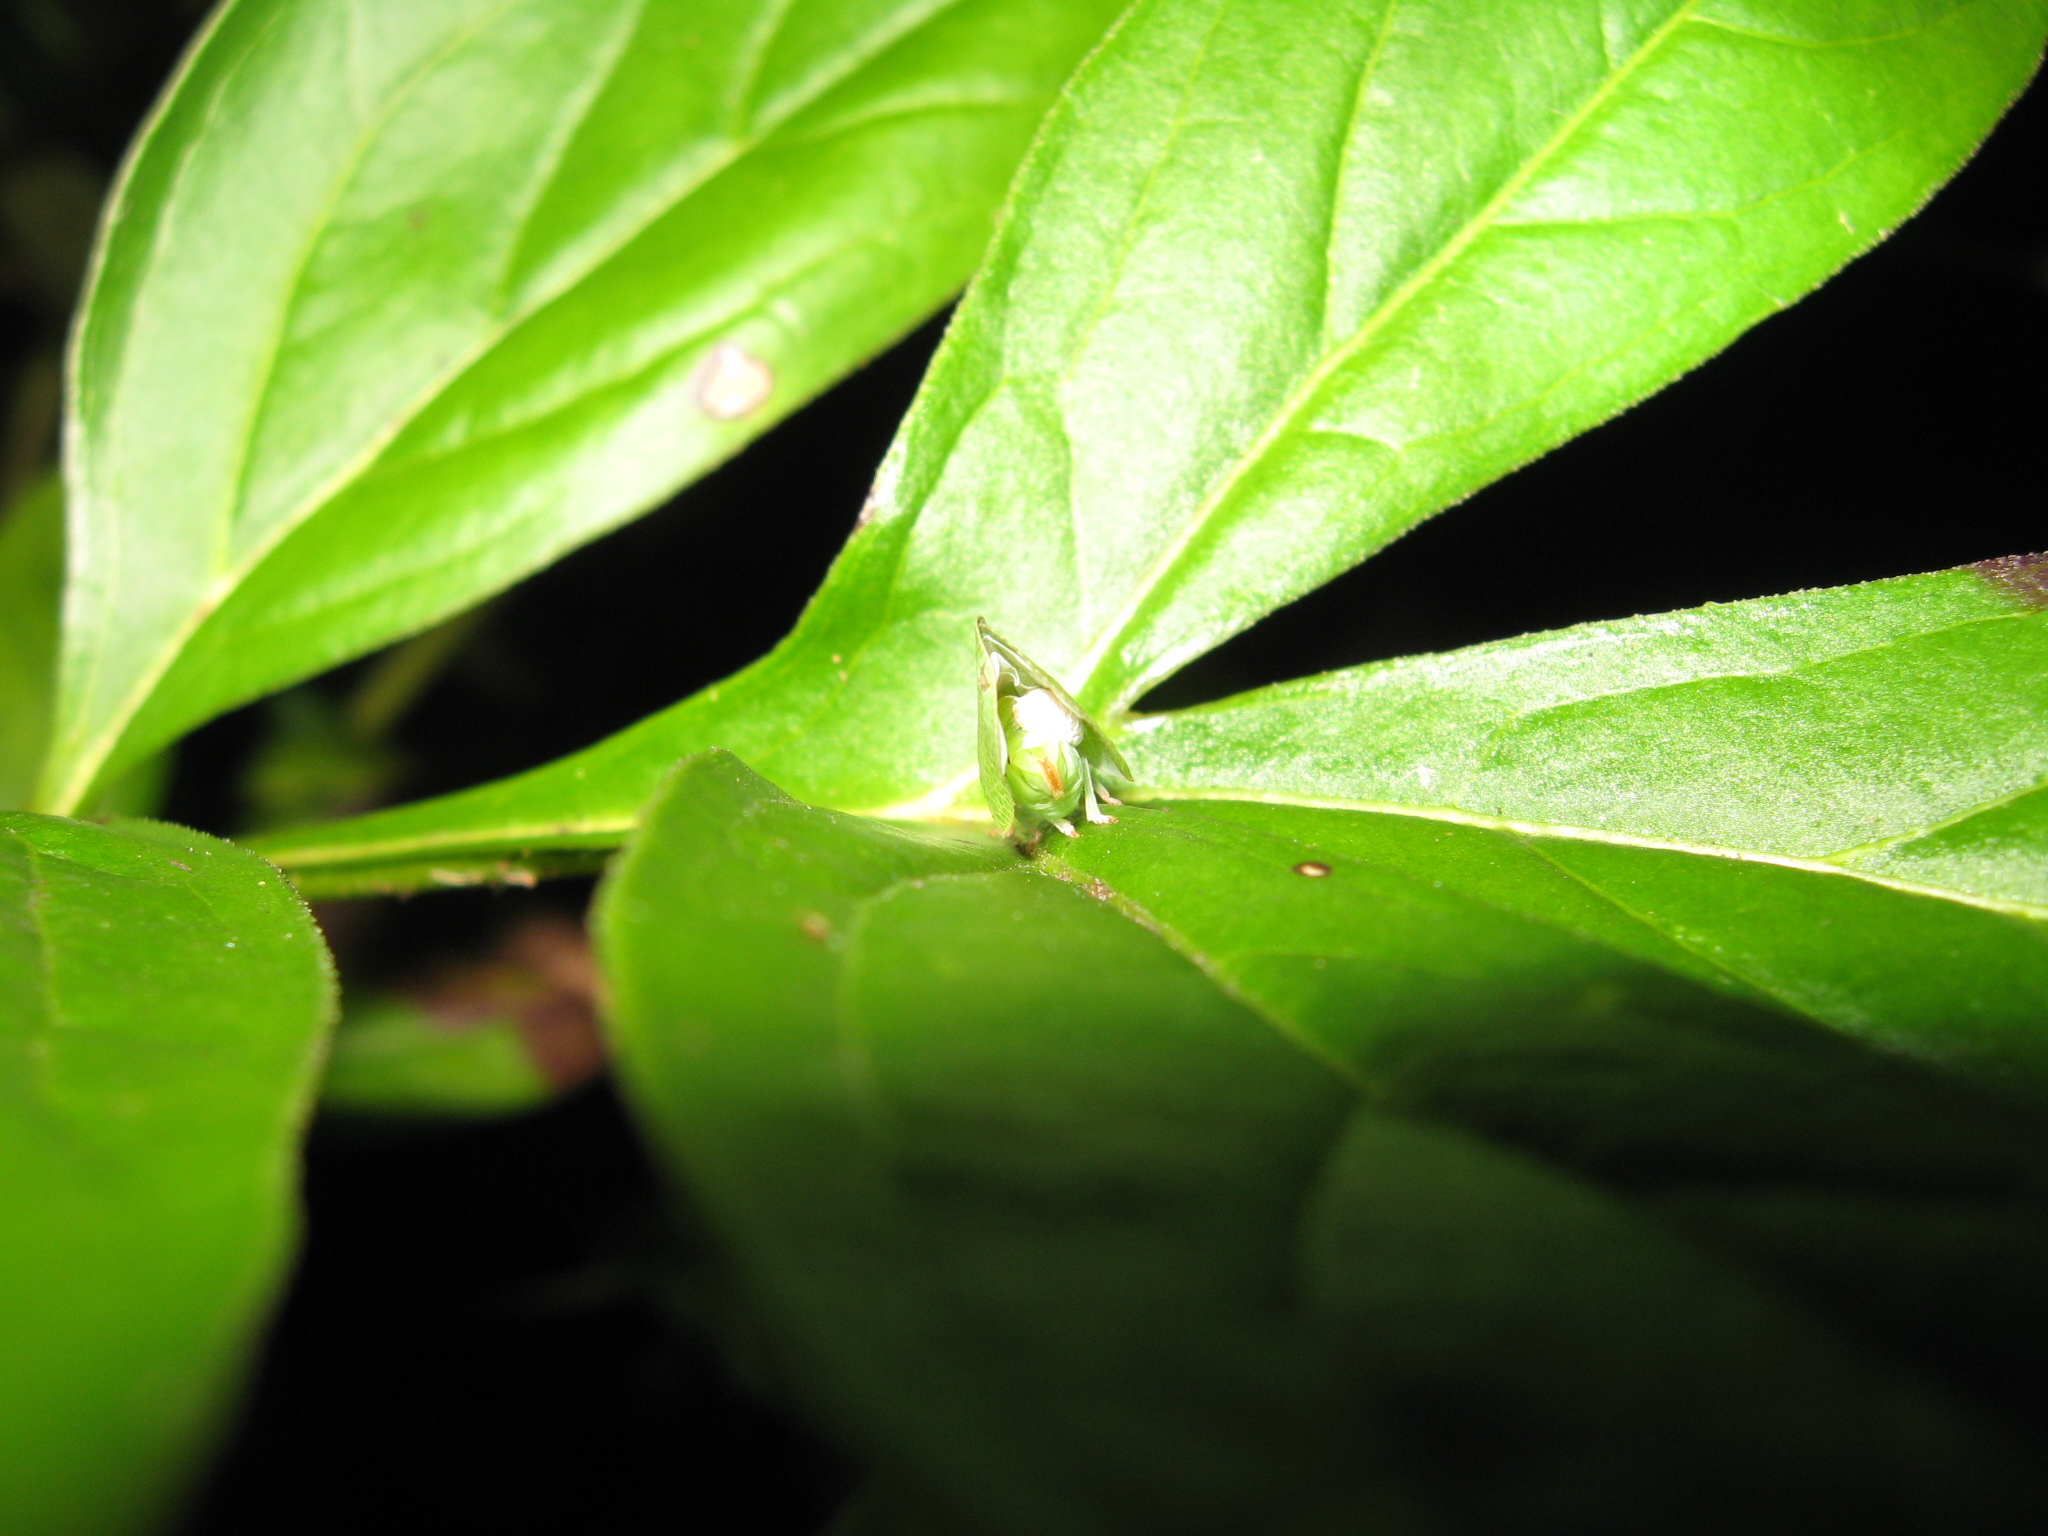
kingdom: Animalia
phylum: Arthropoda
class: Insecta
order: Hemiptera
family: Acanaloniidae
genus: Acanalonia
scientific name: Acanalonia conica
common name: Green cone-headed planthopper
